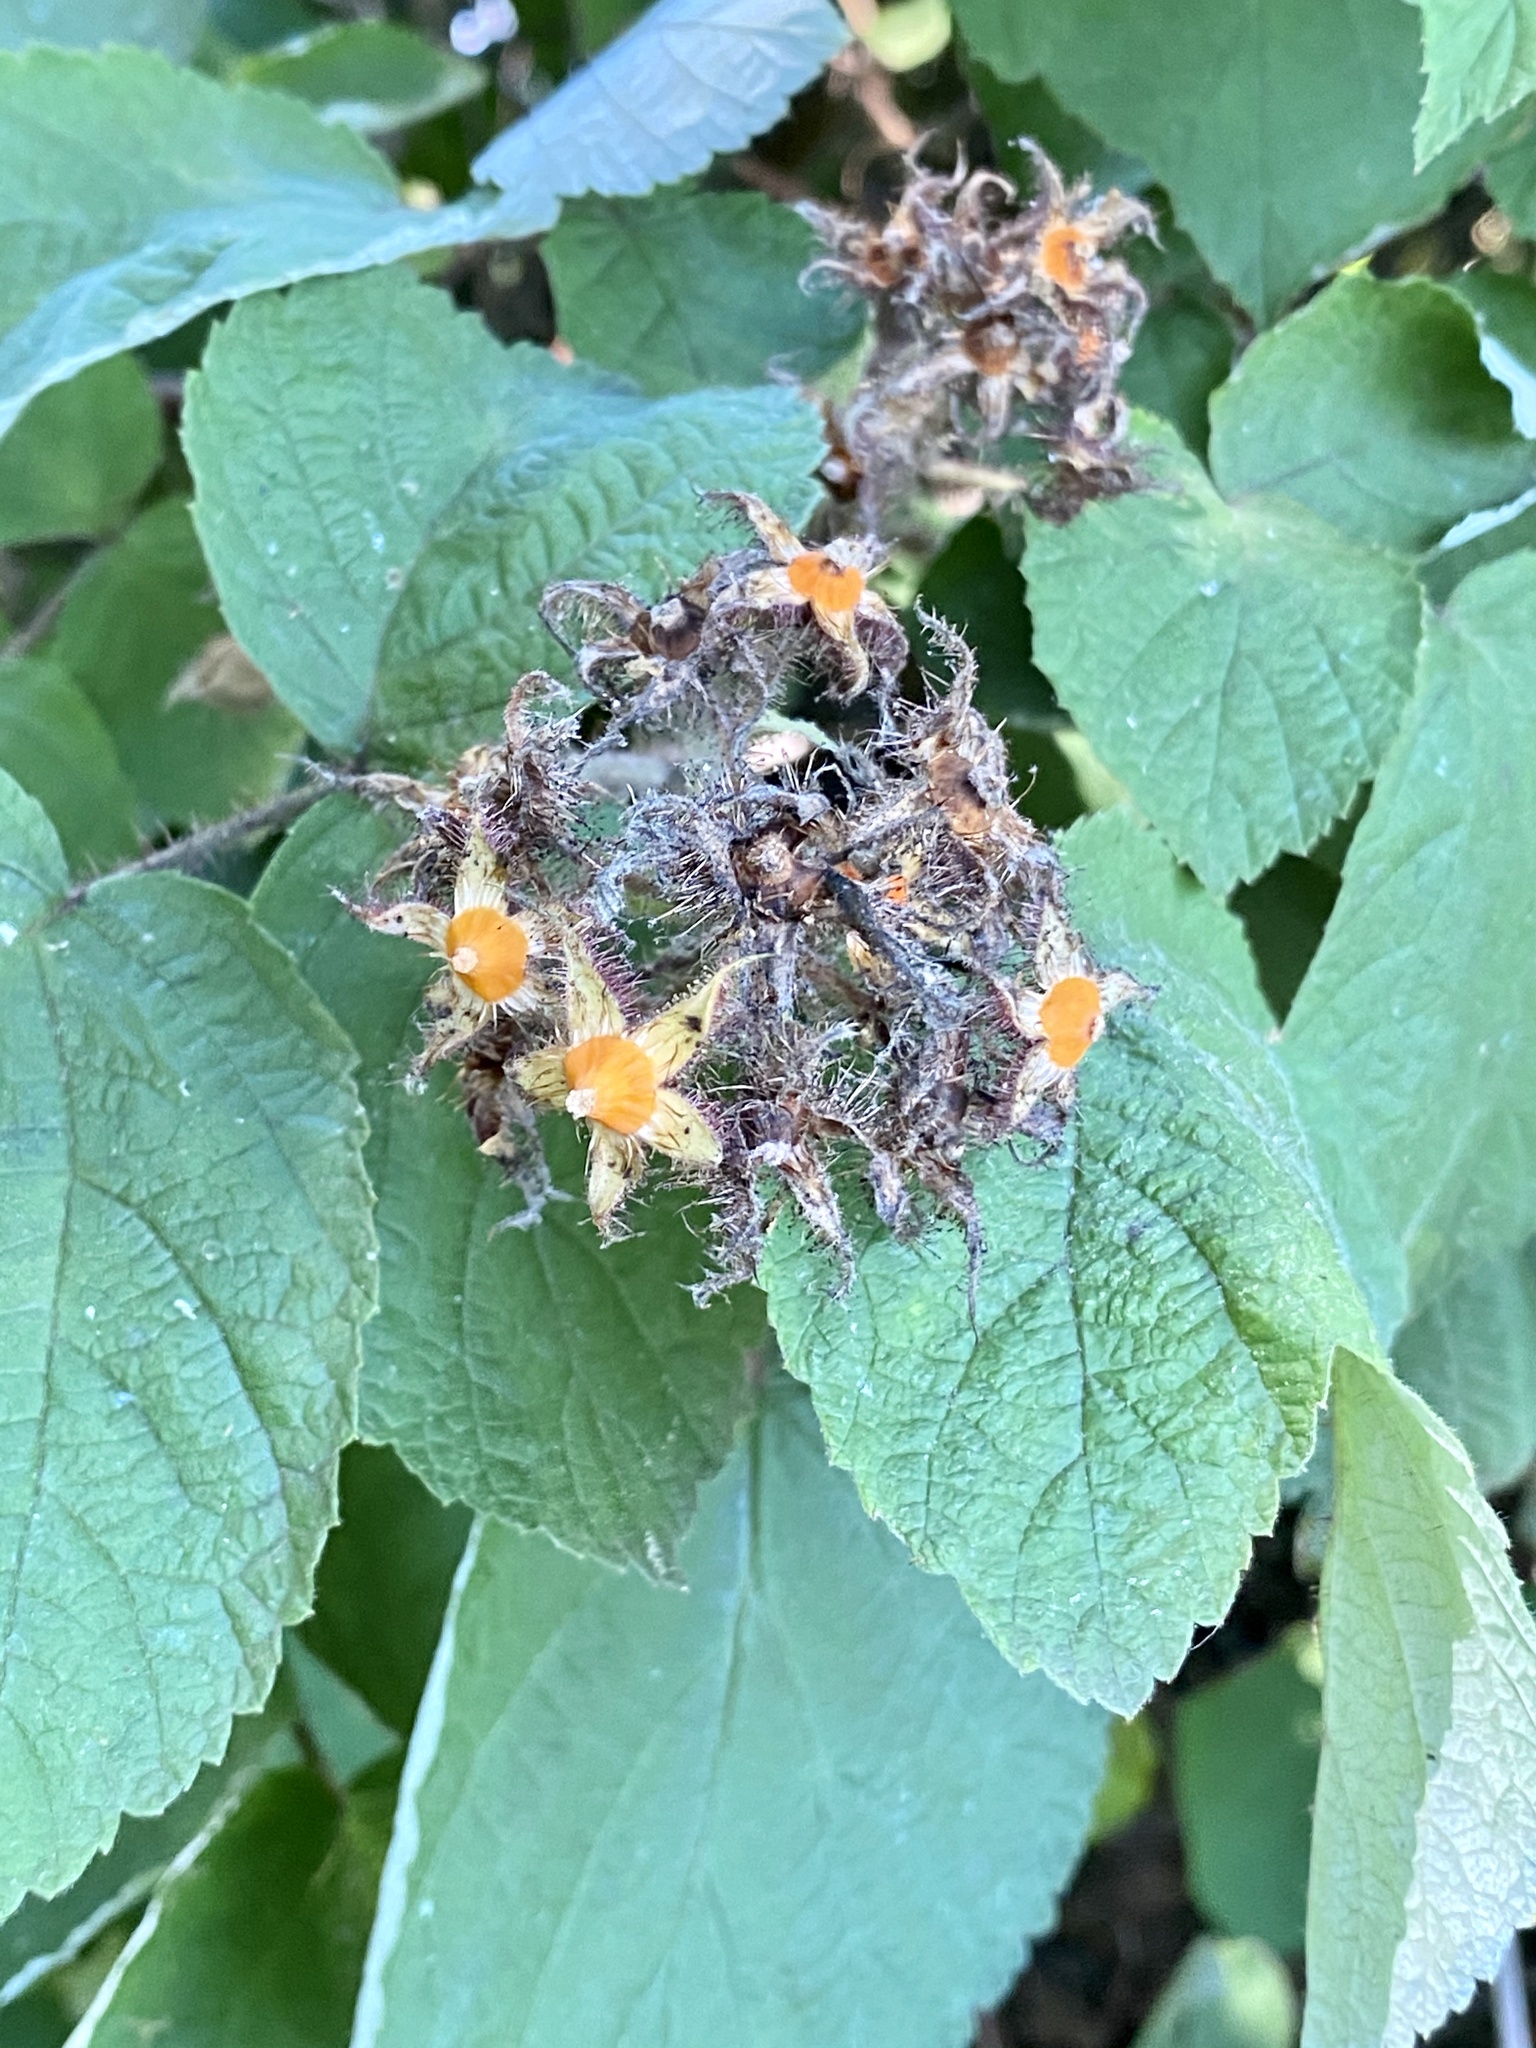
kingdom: Plantae
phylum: Tracheophyta
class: Magnoliopsida
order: Rosales
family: Rosaceae
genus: Rubus
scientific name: Rubus phoenicolasius
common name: Japanese wineberry
